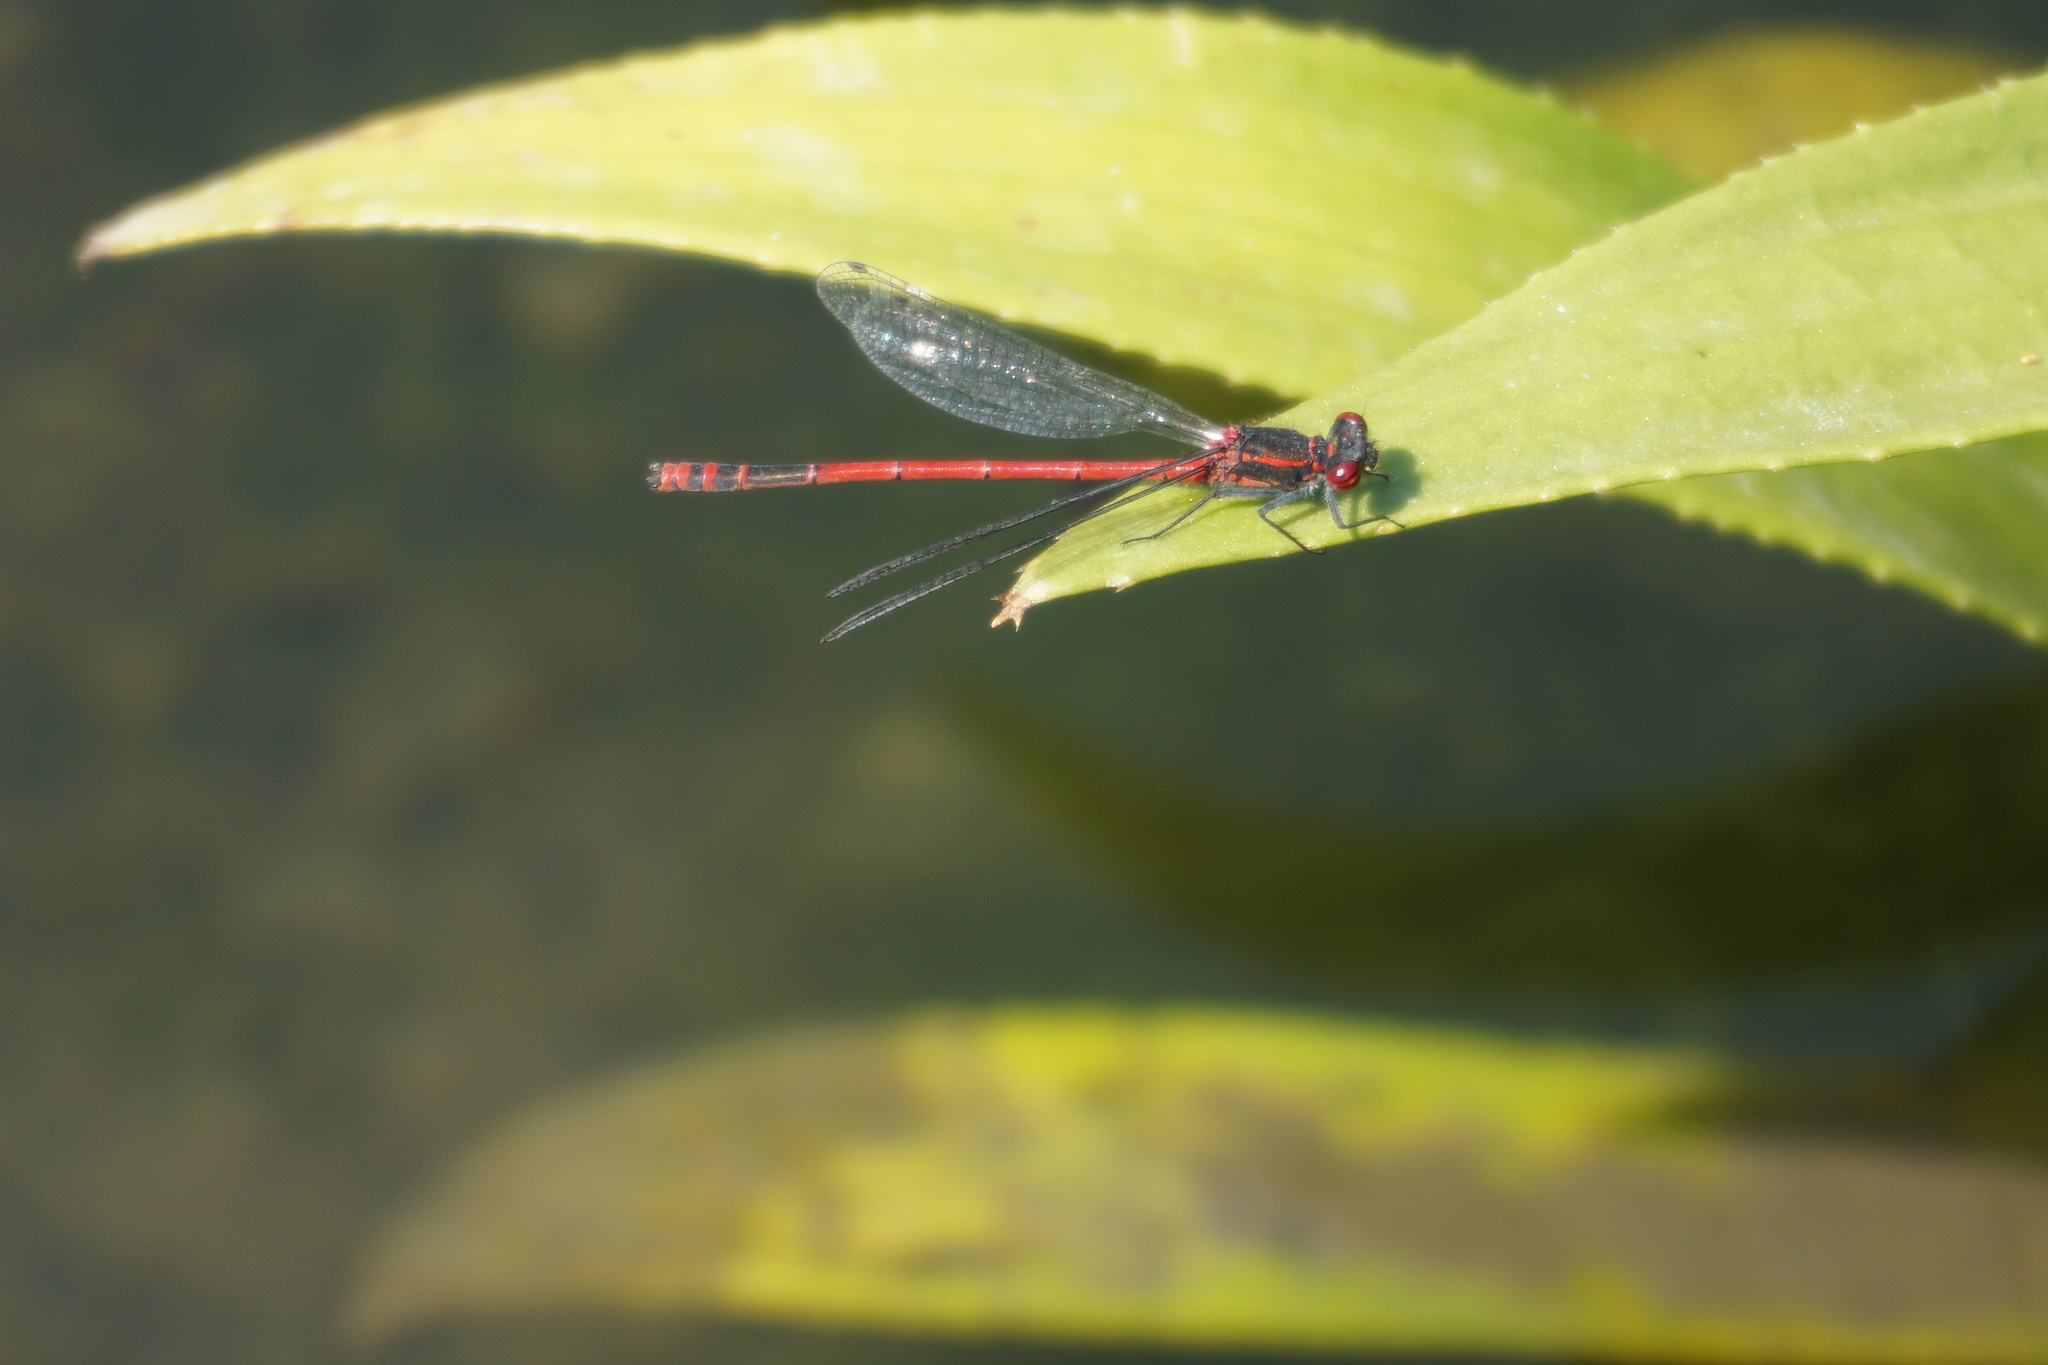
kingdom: Animalia
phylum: Arthropoda
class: Insecta
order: Odonata
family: Coenagrionidae
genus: Pyrrhosoma
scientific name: Pyrrhosoma nymphula
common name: Large red damsel
